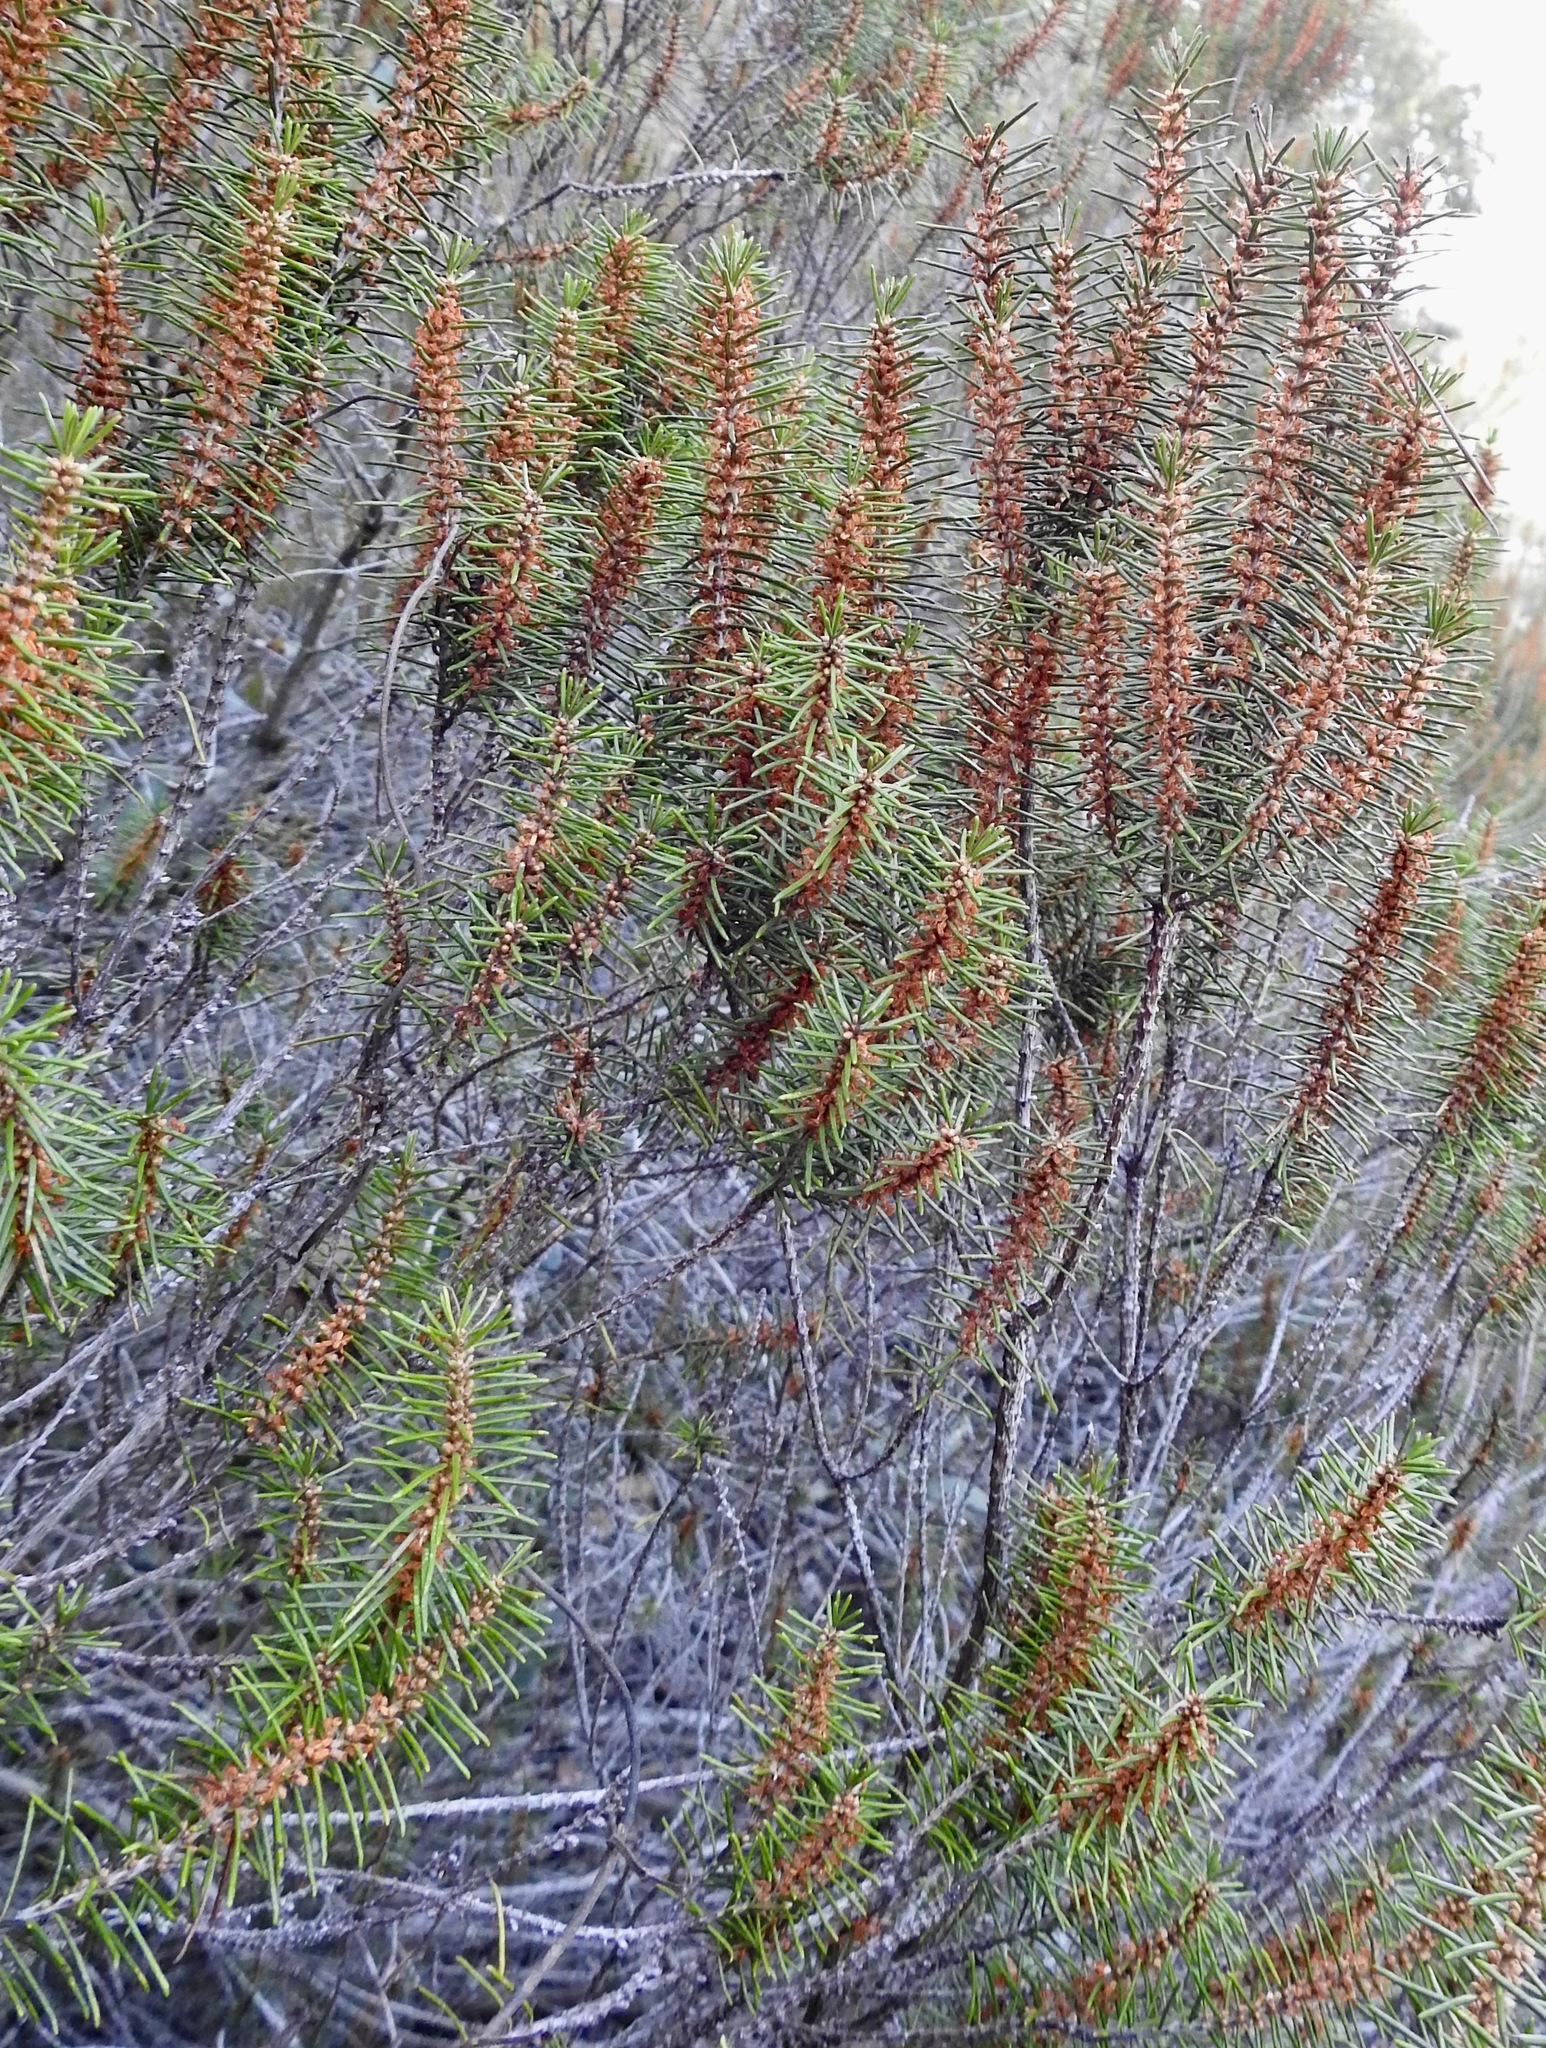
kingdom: Plantae
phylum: Tracheophyta
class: Magnoliopsida
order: Ericales
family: Ericaceae
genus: Ceratiola
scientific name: Ceratiola ericoides
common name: Sandhill-rosemary
